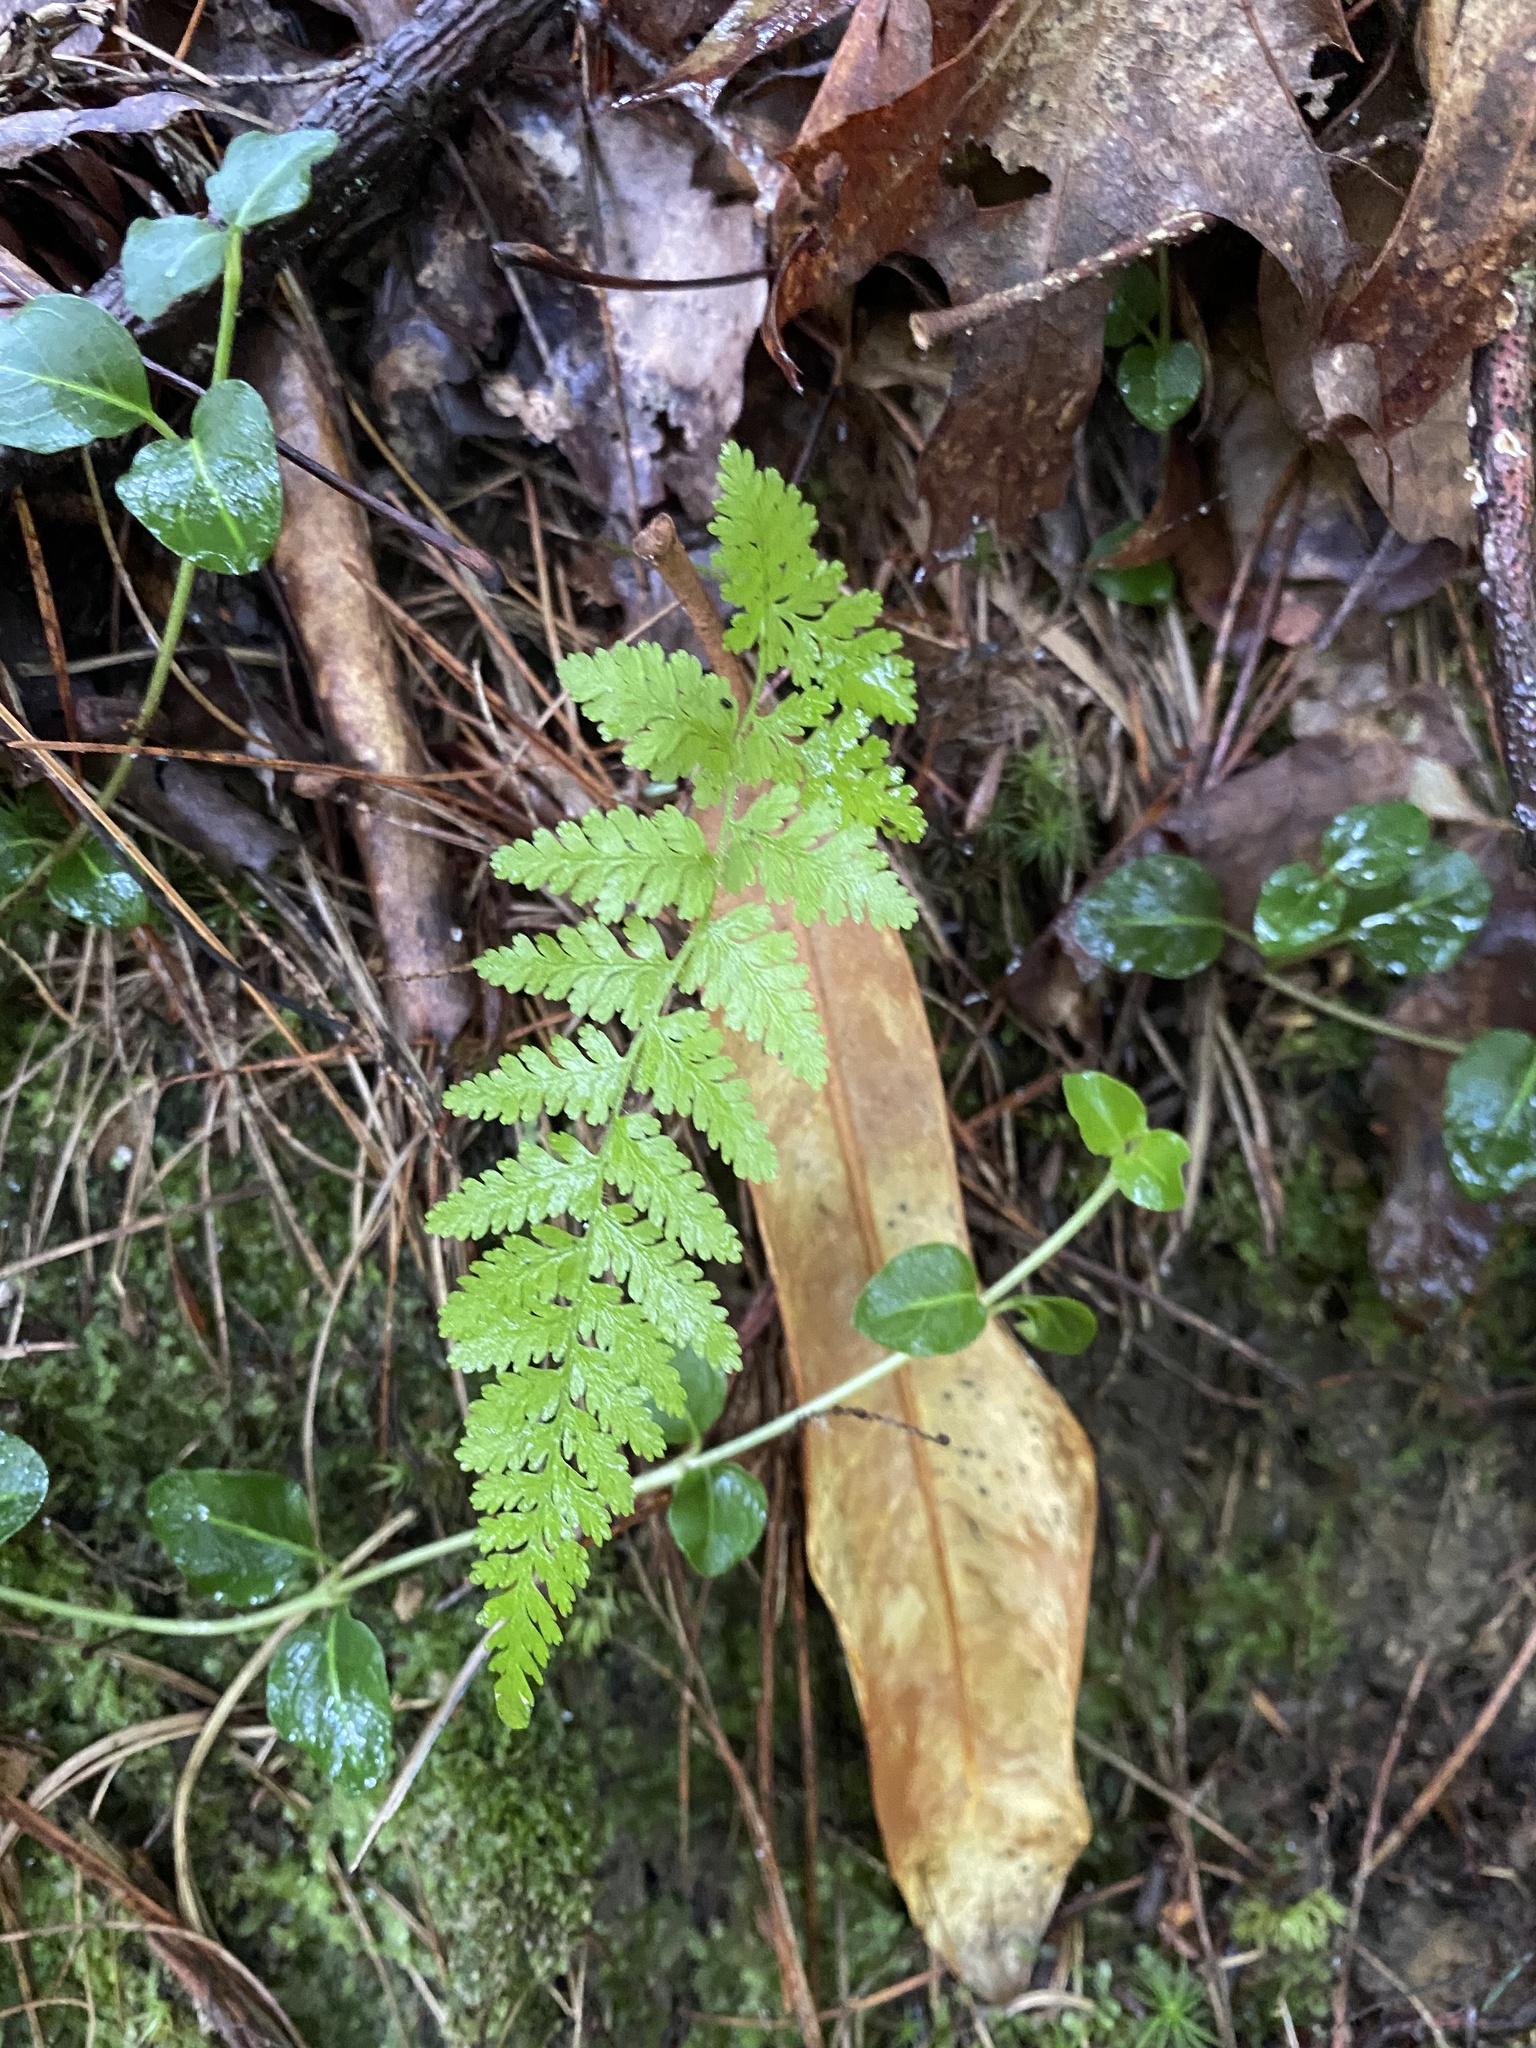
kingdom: Plantae
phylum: Tracheophyta
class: Polypodiopsida
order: Polypodiales
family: Dennstaedtiaceae
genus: Sitobolium
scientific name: Sitobolium punctilobum
